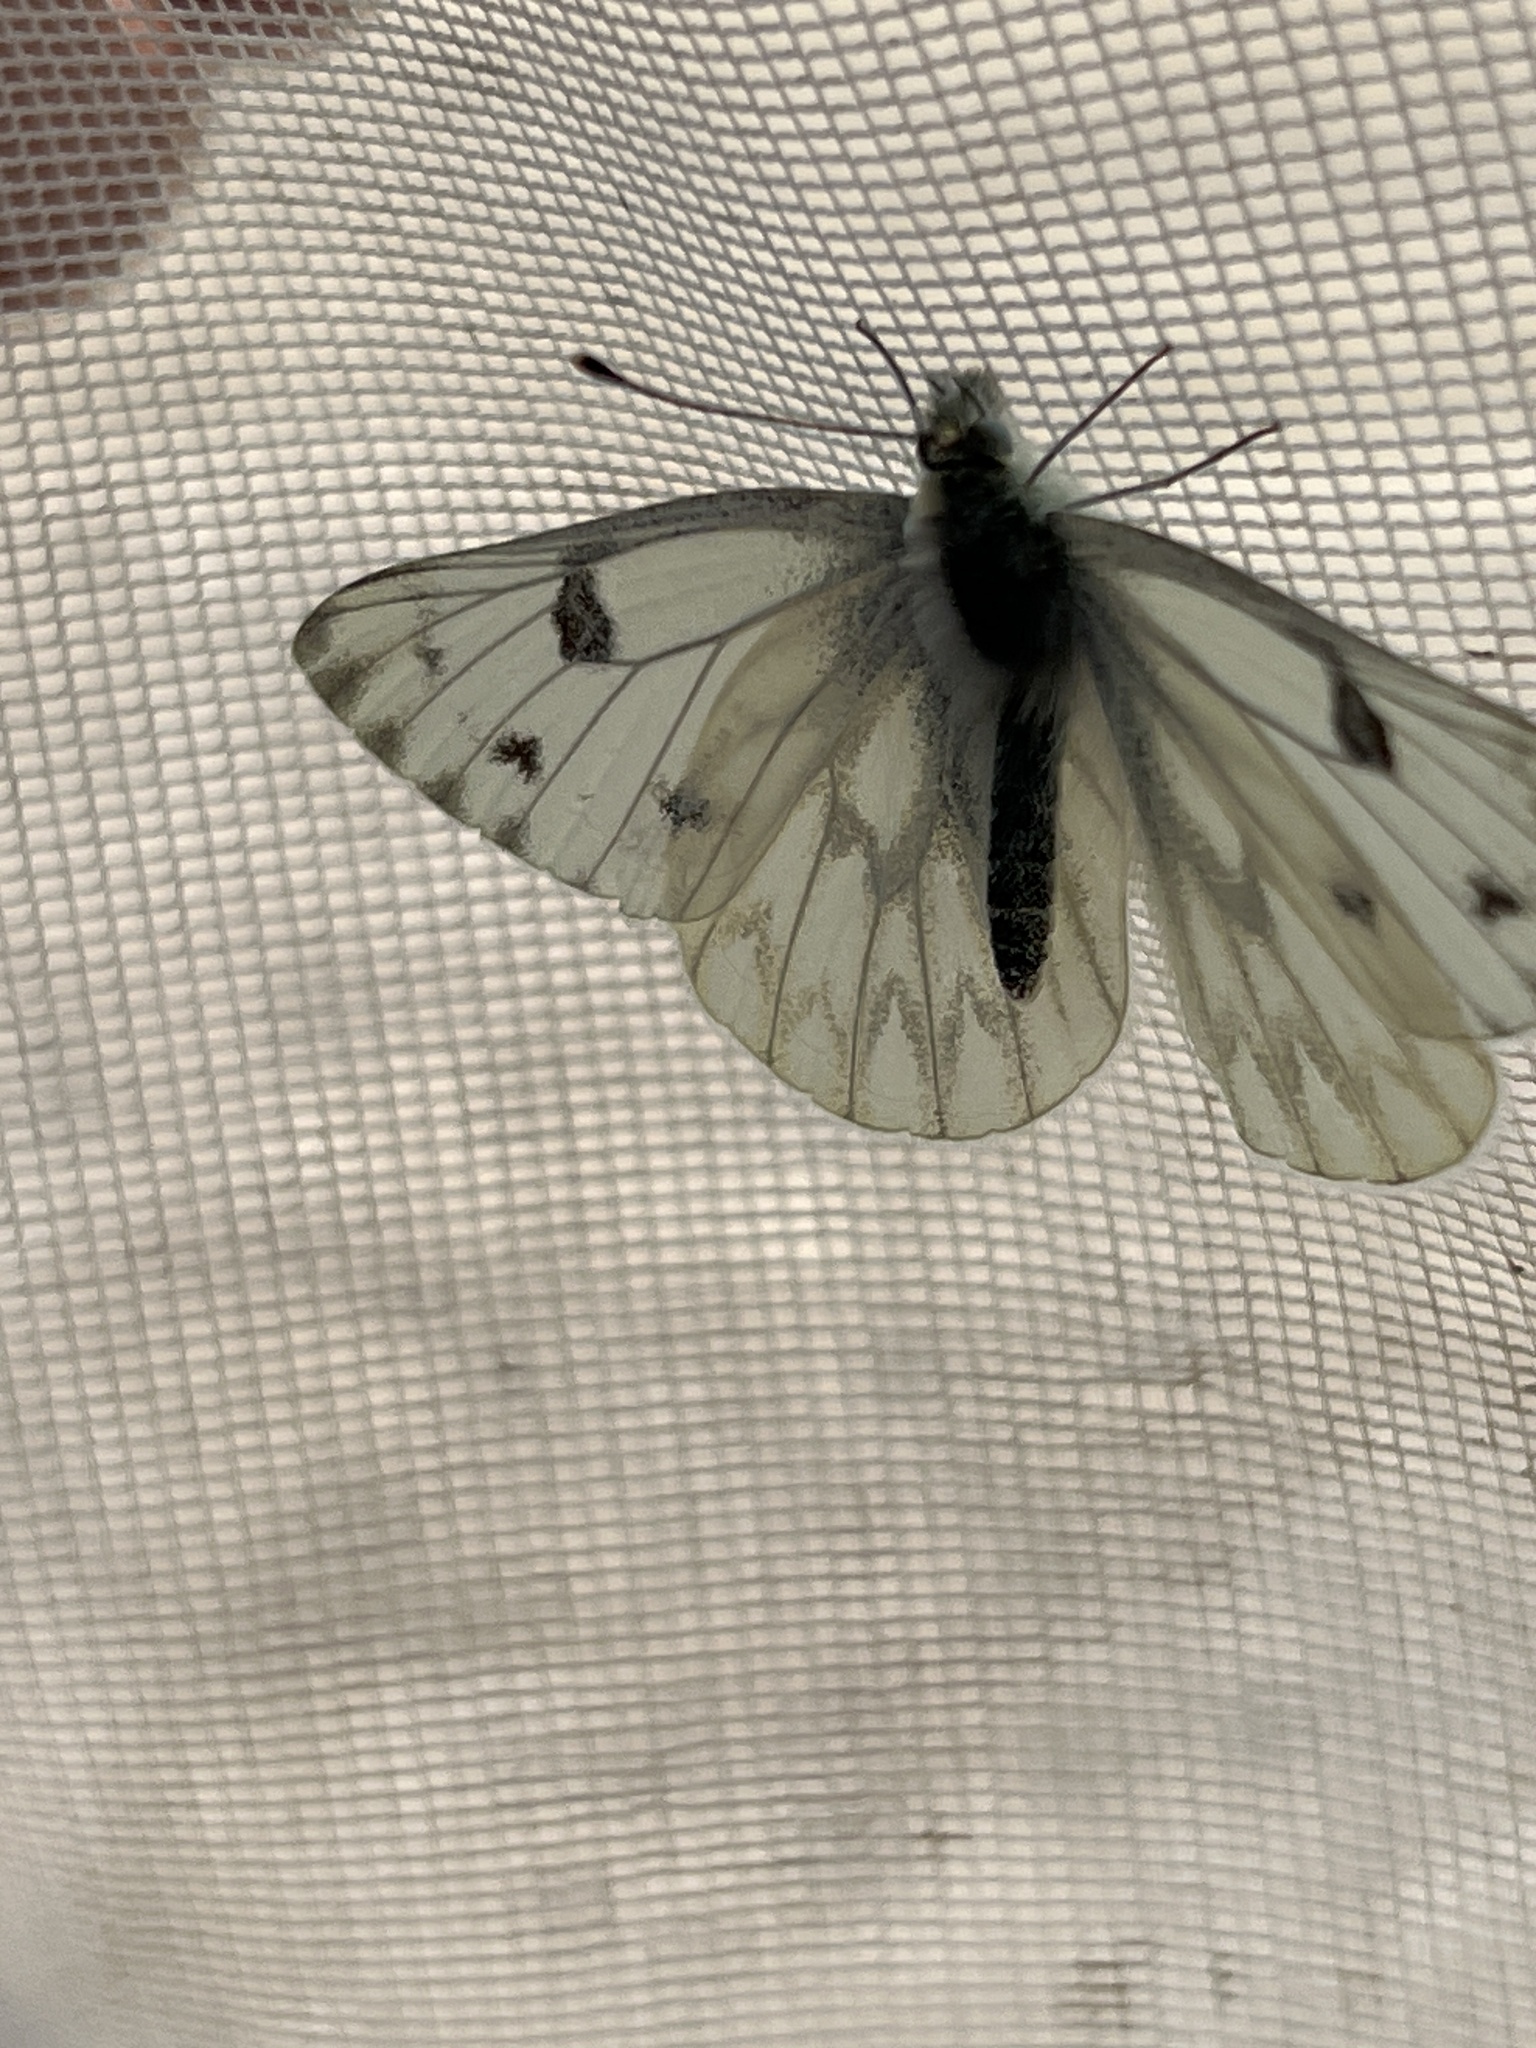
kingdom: Animalia
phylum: Arthropoda
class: Insecta
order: Lepidoptera
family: Pieridae
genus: Pontia
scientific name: Pontia occidentalis
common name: Western white
